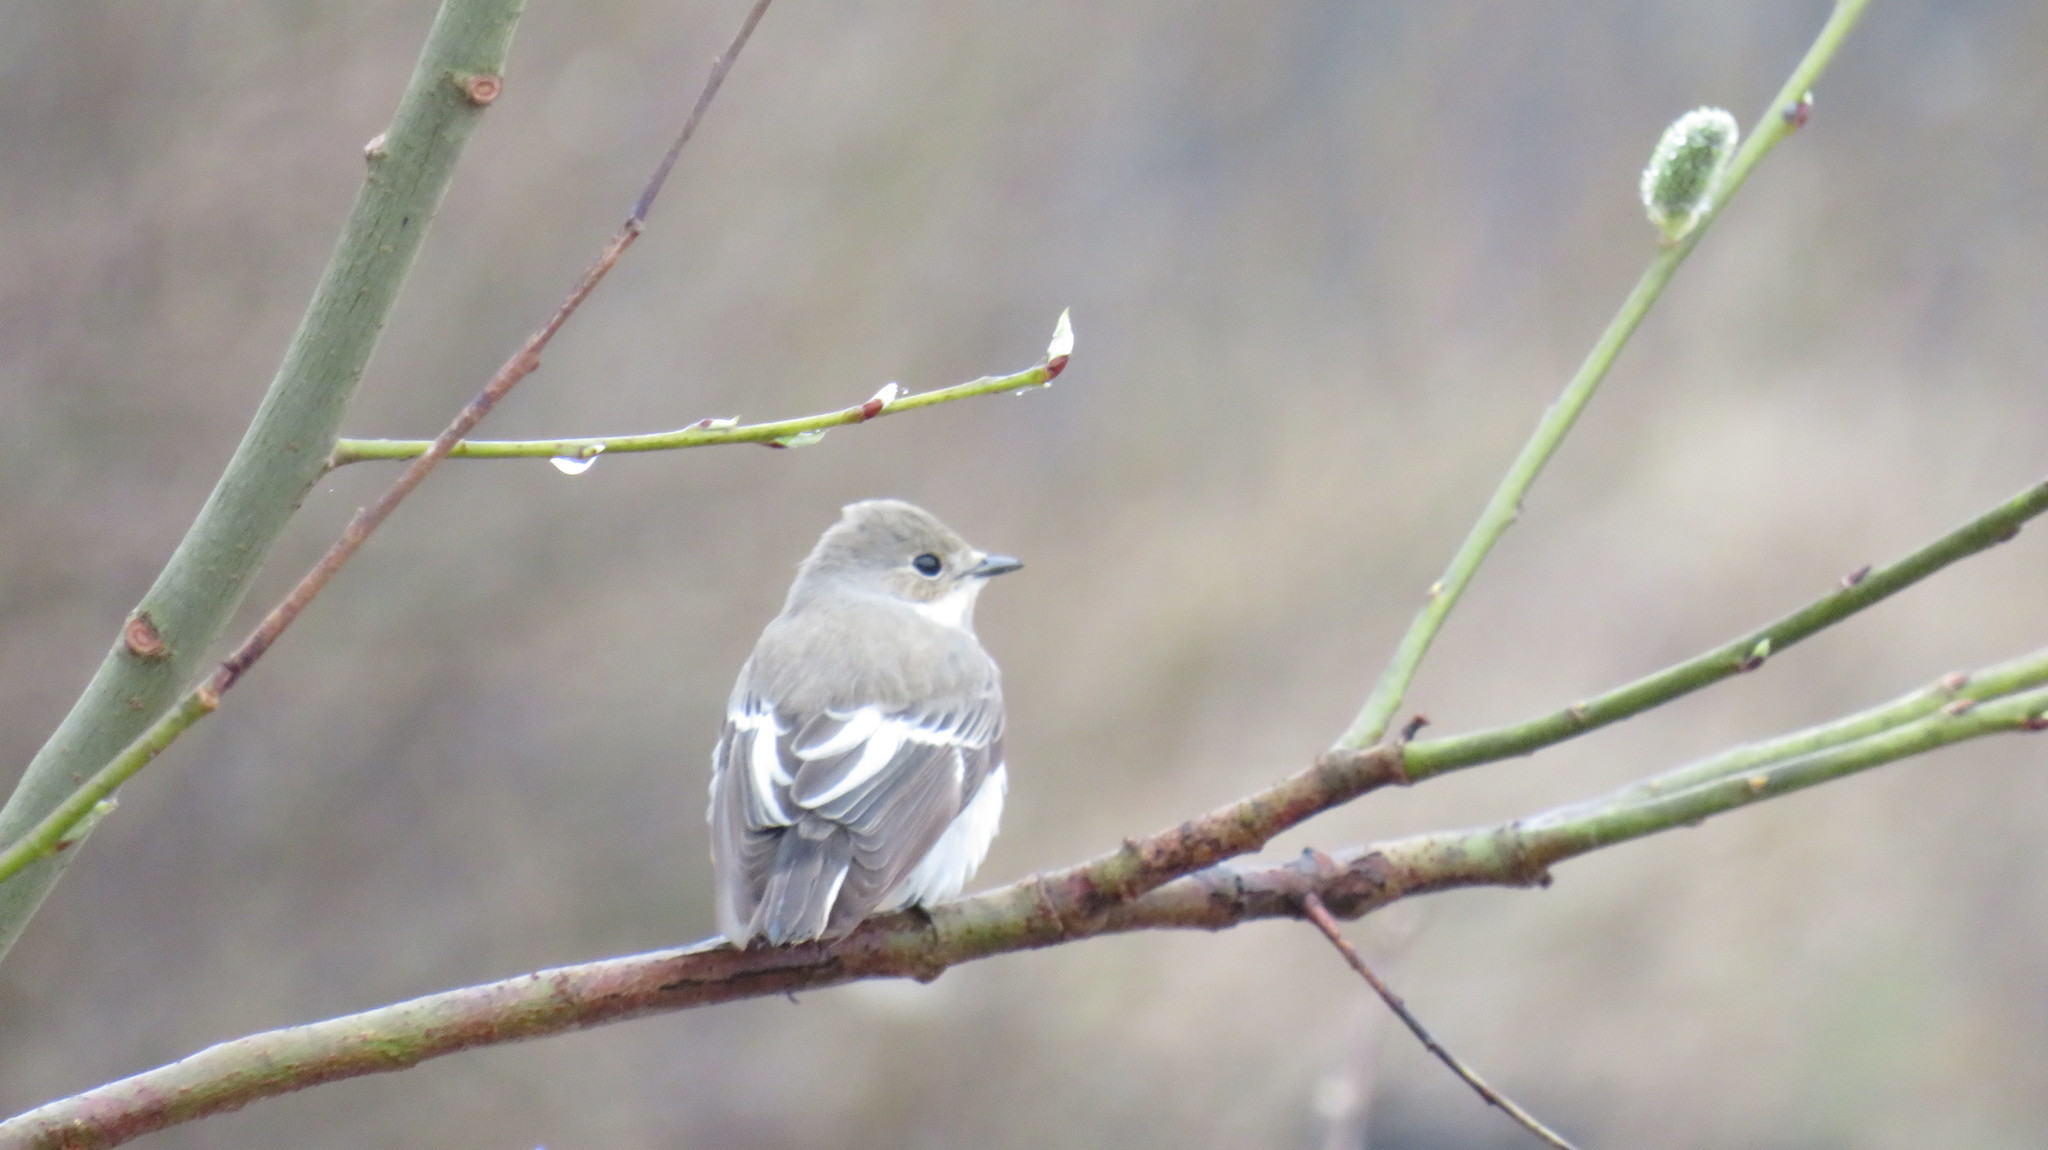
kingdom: Animalia
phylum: Chordata
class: Aves
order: Passeriformes
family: Muscicapidae
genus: Ficedula
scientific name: Ficedula hypoleuca
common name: European pied flycatcher
